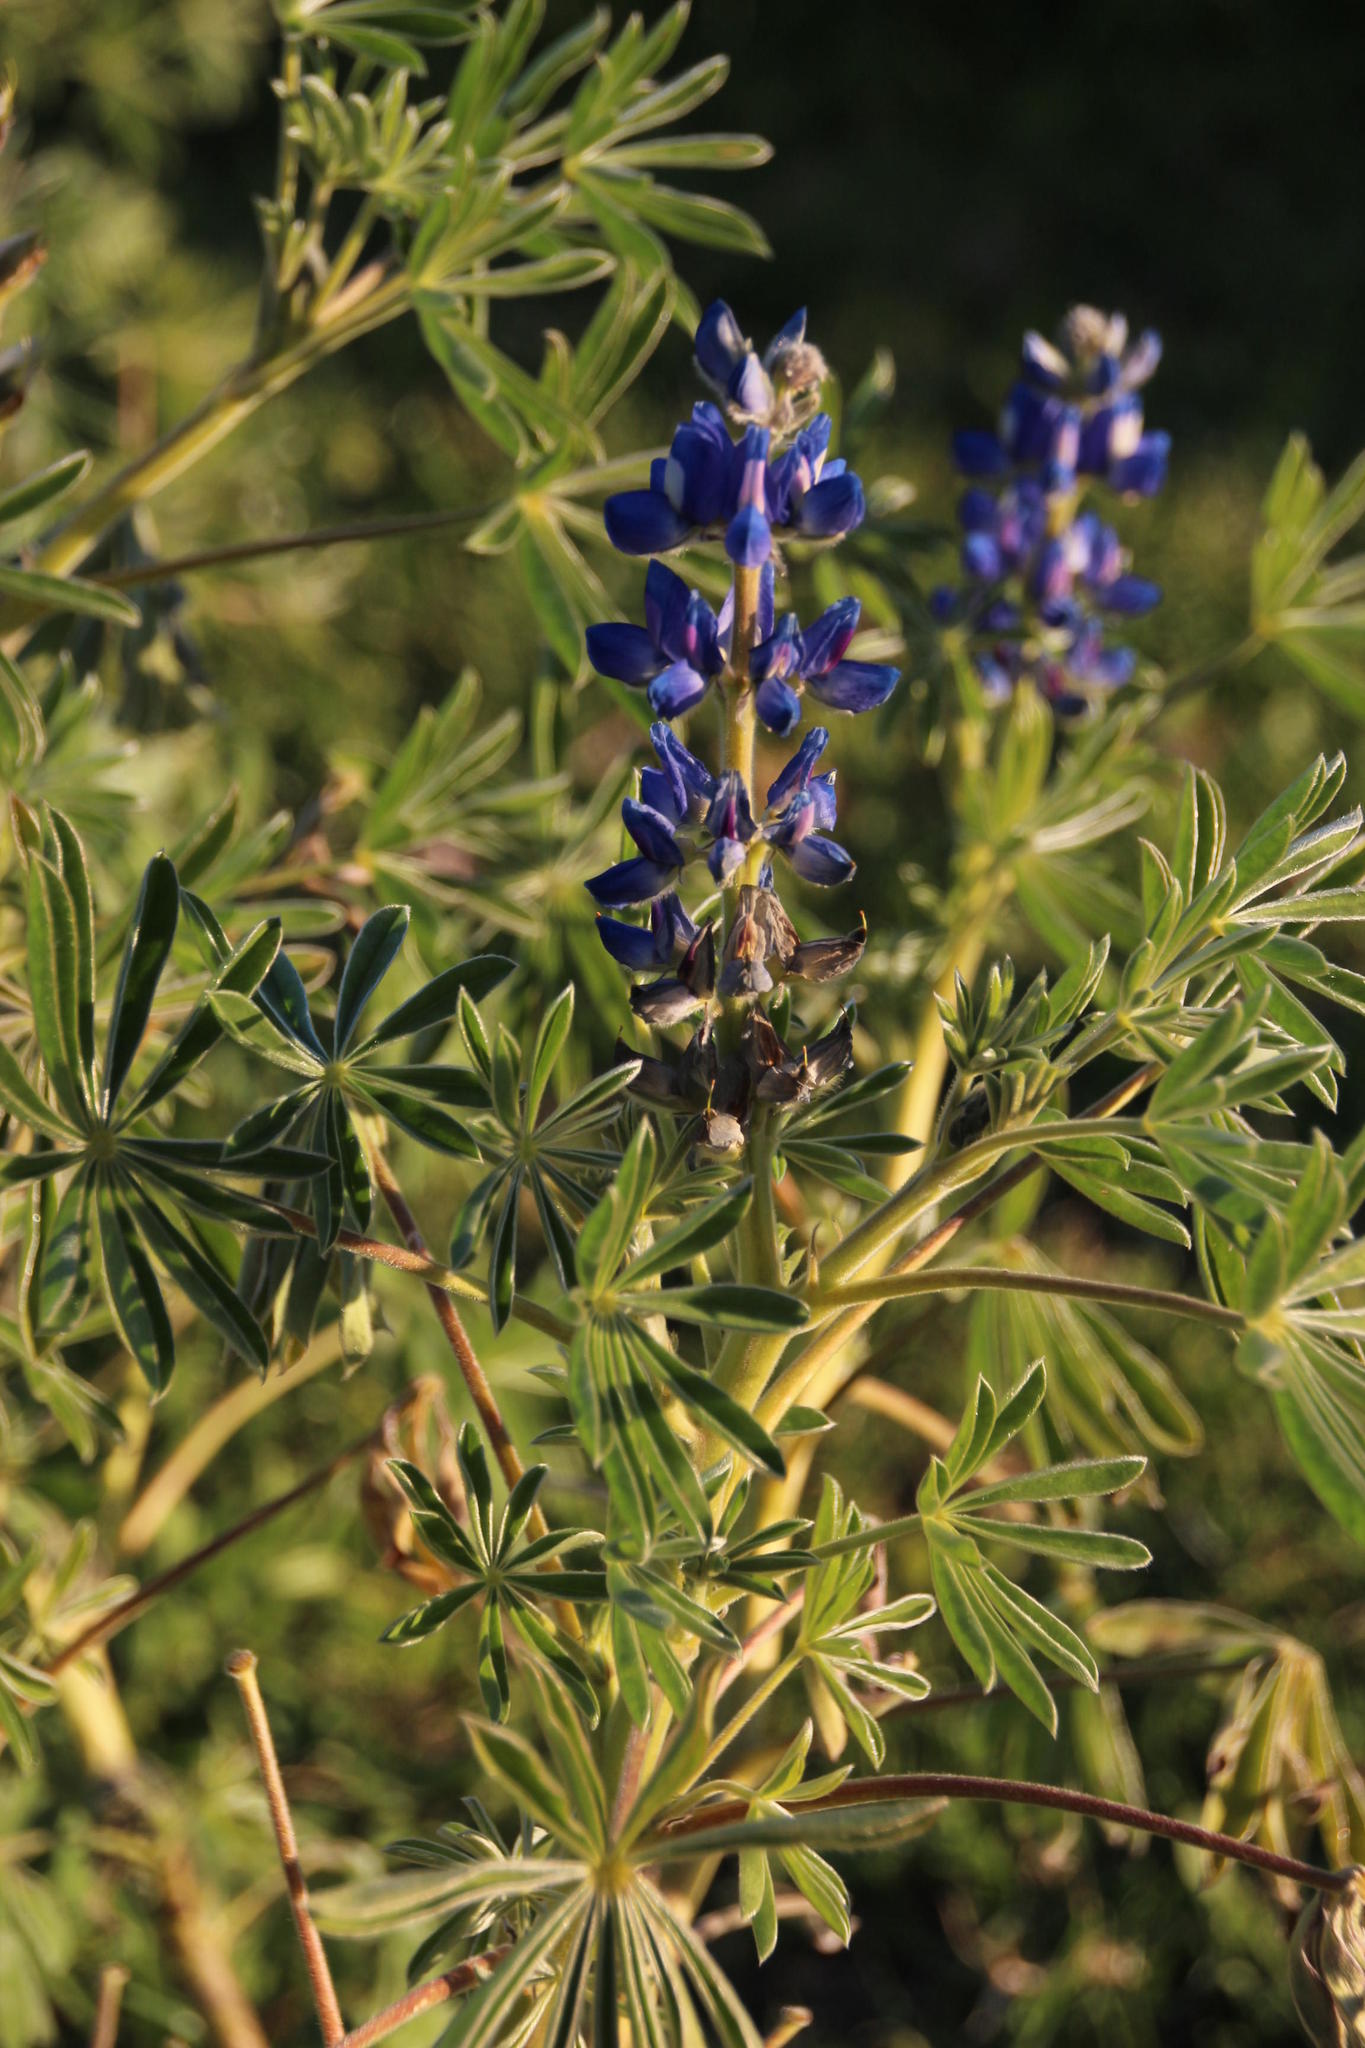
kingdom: Plantae
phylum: Tracheophyta
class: Magnoliopsida
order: Fabales
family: Fabaceae
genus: Lupinus
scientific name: Lupinus angustifolius
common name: Narrow-leaved lupin
